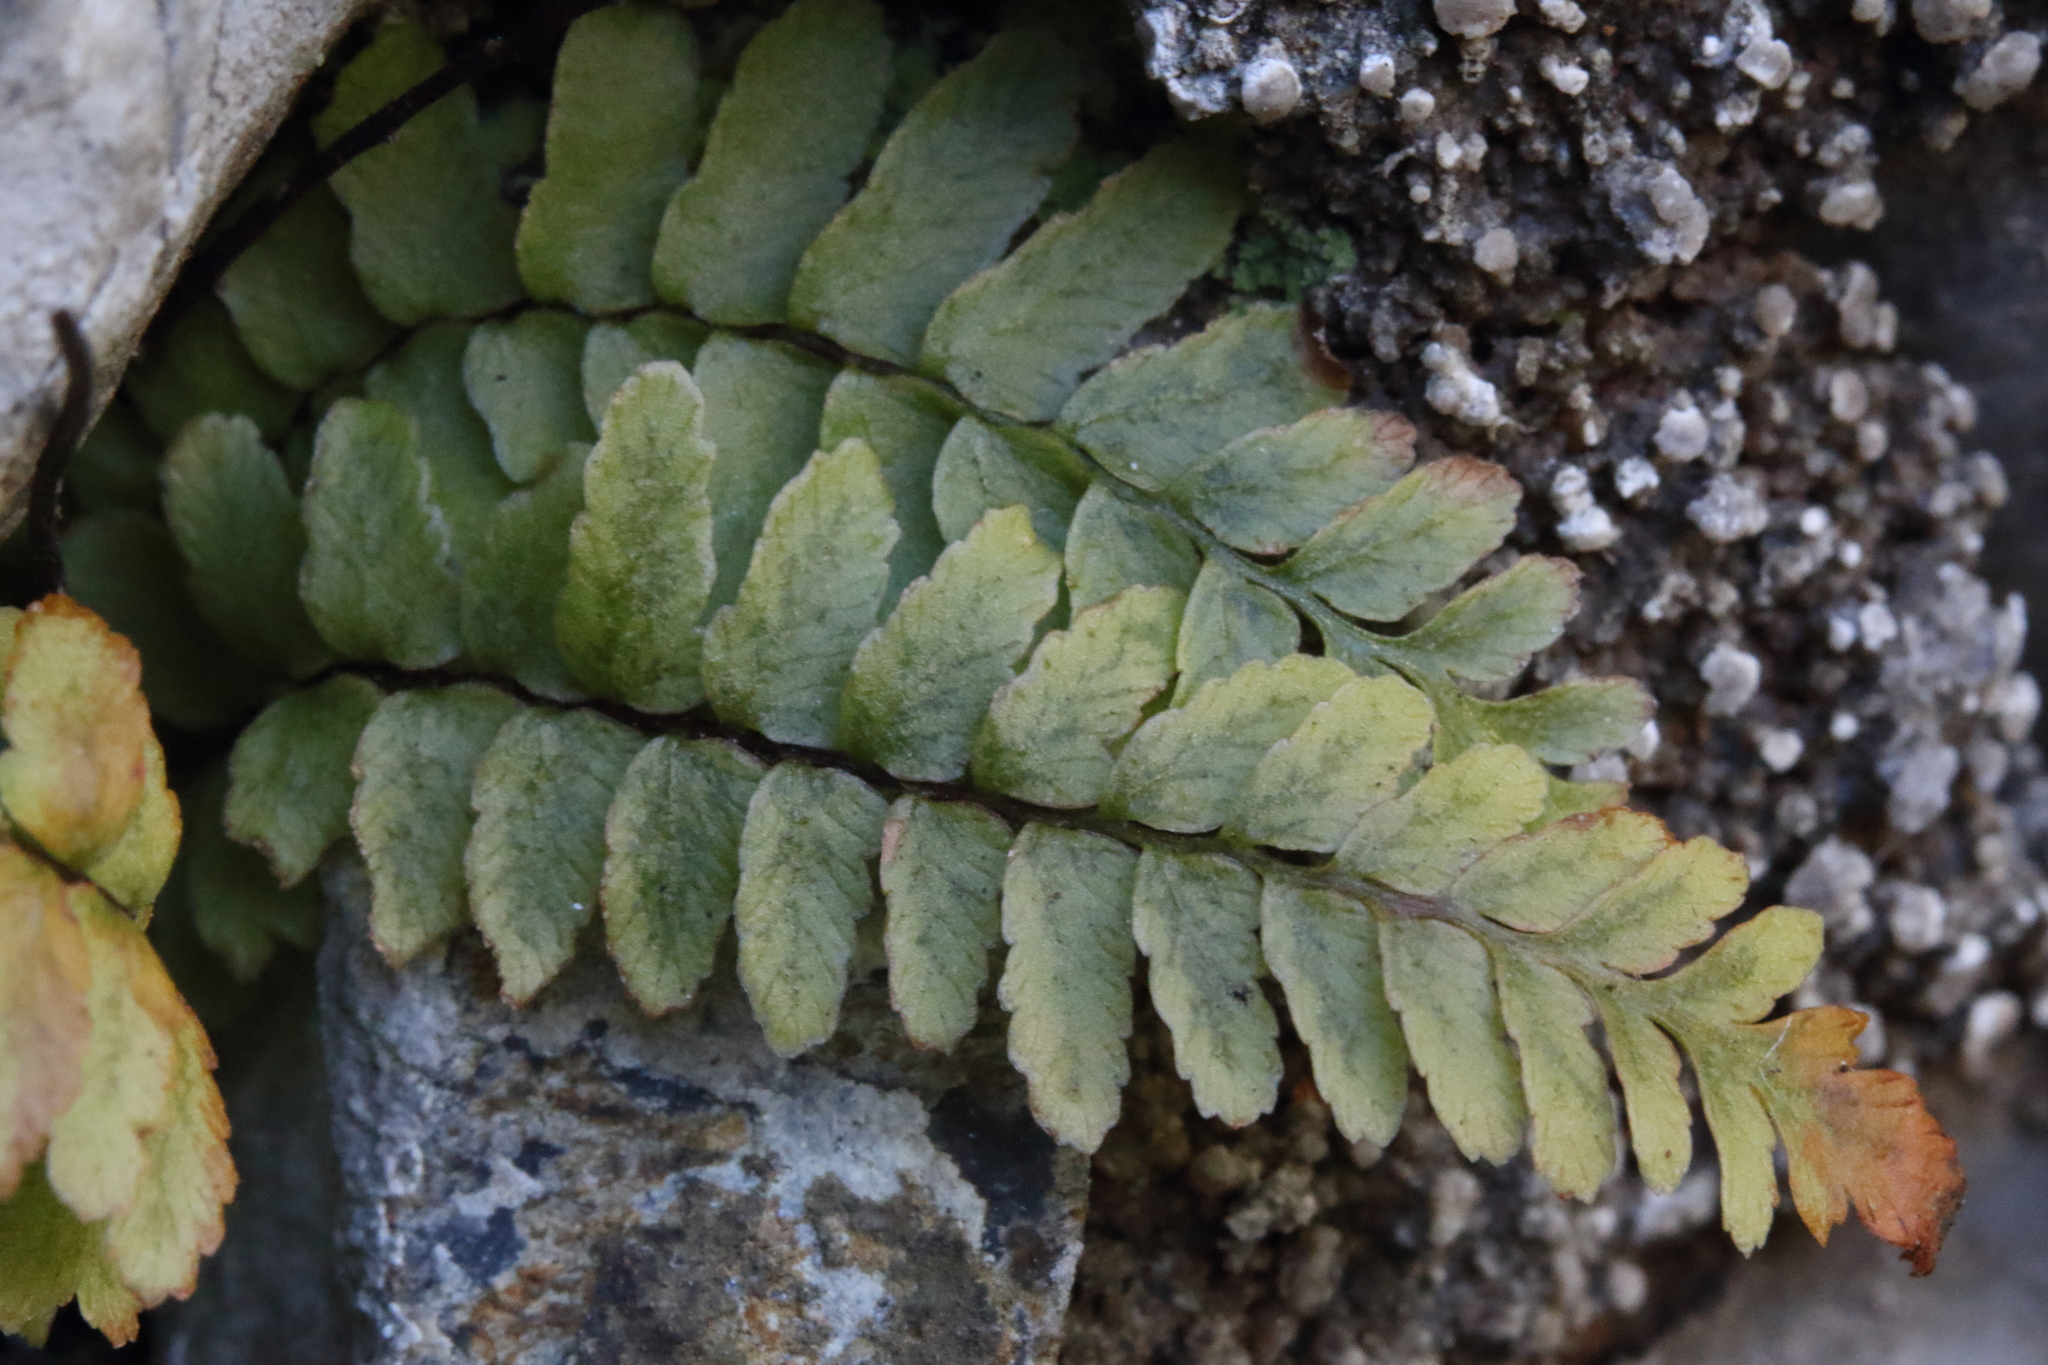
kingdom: Plantae
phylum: Tracheophyta
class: Polypodiopsida
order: Polypodiales
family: Aspleniaceae
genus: Asplenium
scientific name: Asplenium platyneuron
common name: Ebony spleenwort
